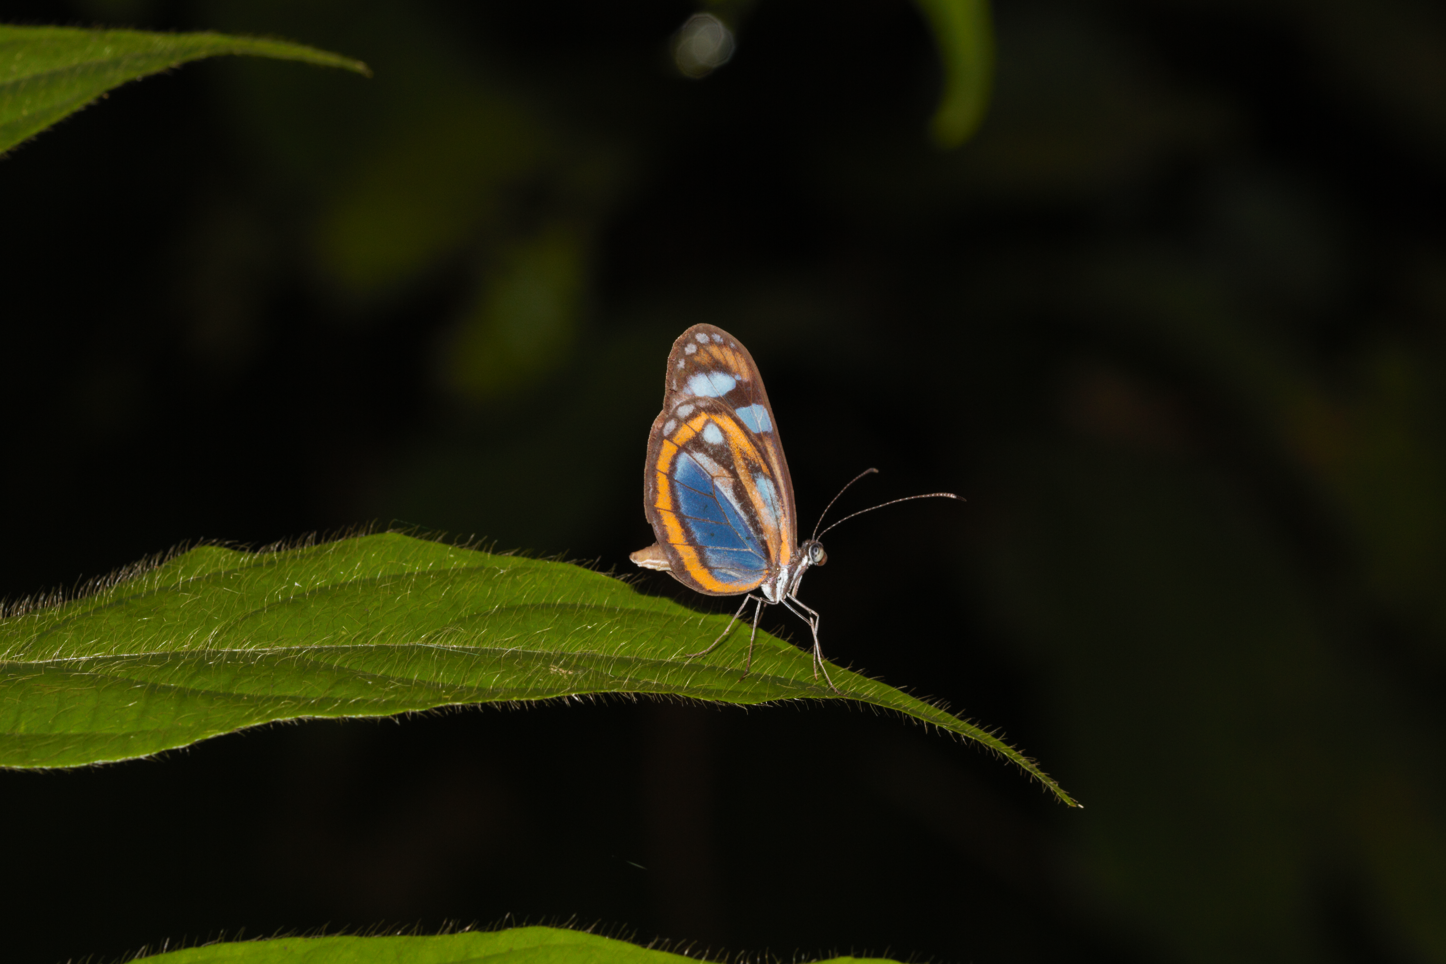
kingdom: Animalia
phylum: Arthropoda
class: Insecta
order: Lepidoptera
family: Pieridae
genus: Dismorphia
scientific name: Dismorphia theucharila
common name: Clearwing mimic-white
